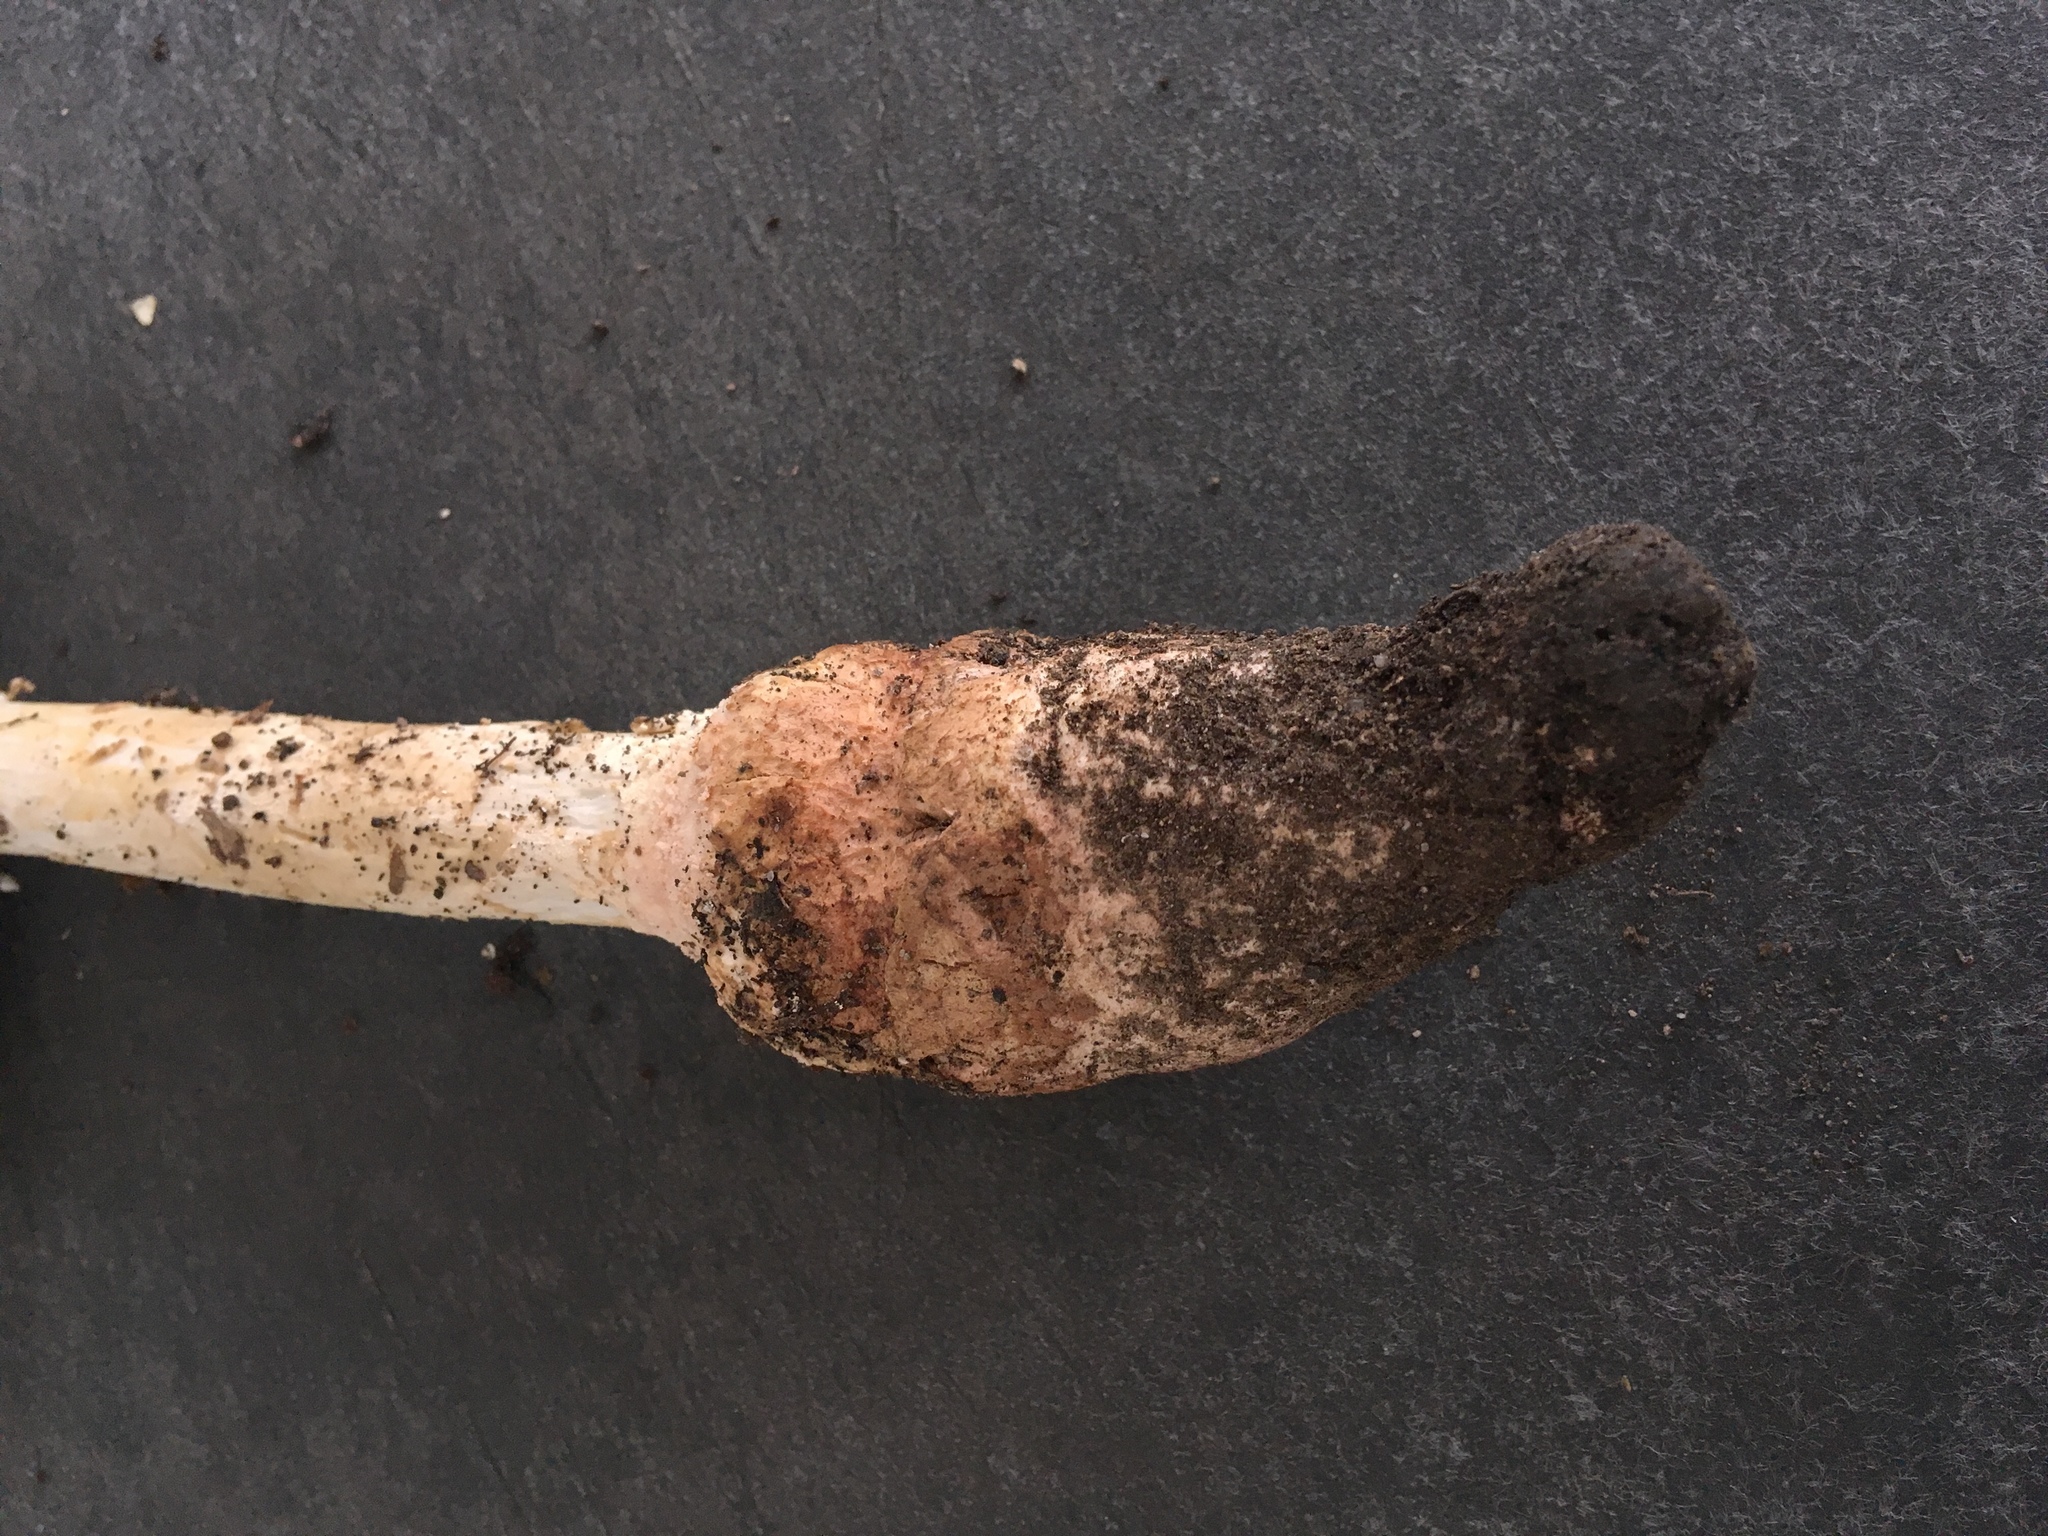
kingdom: Fungi
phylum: Basidiomycota
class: Agaricomycetes
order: Agaricales
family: Amanitaceae
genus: Amanita
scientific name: Amanita subsolitaria
